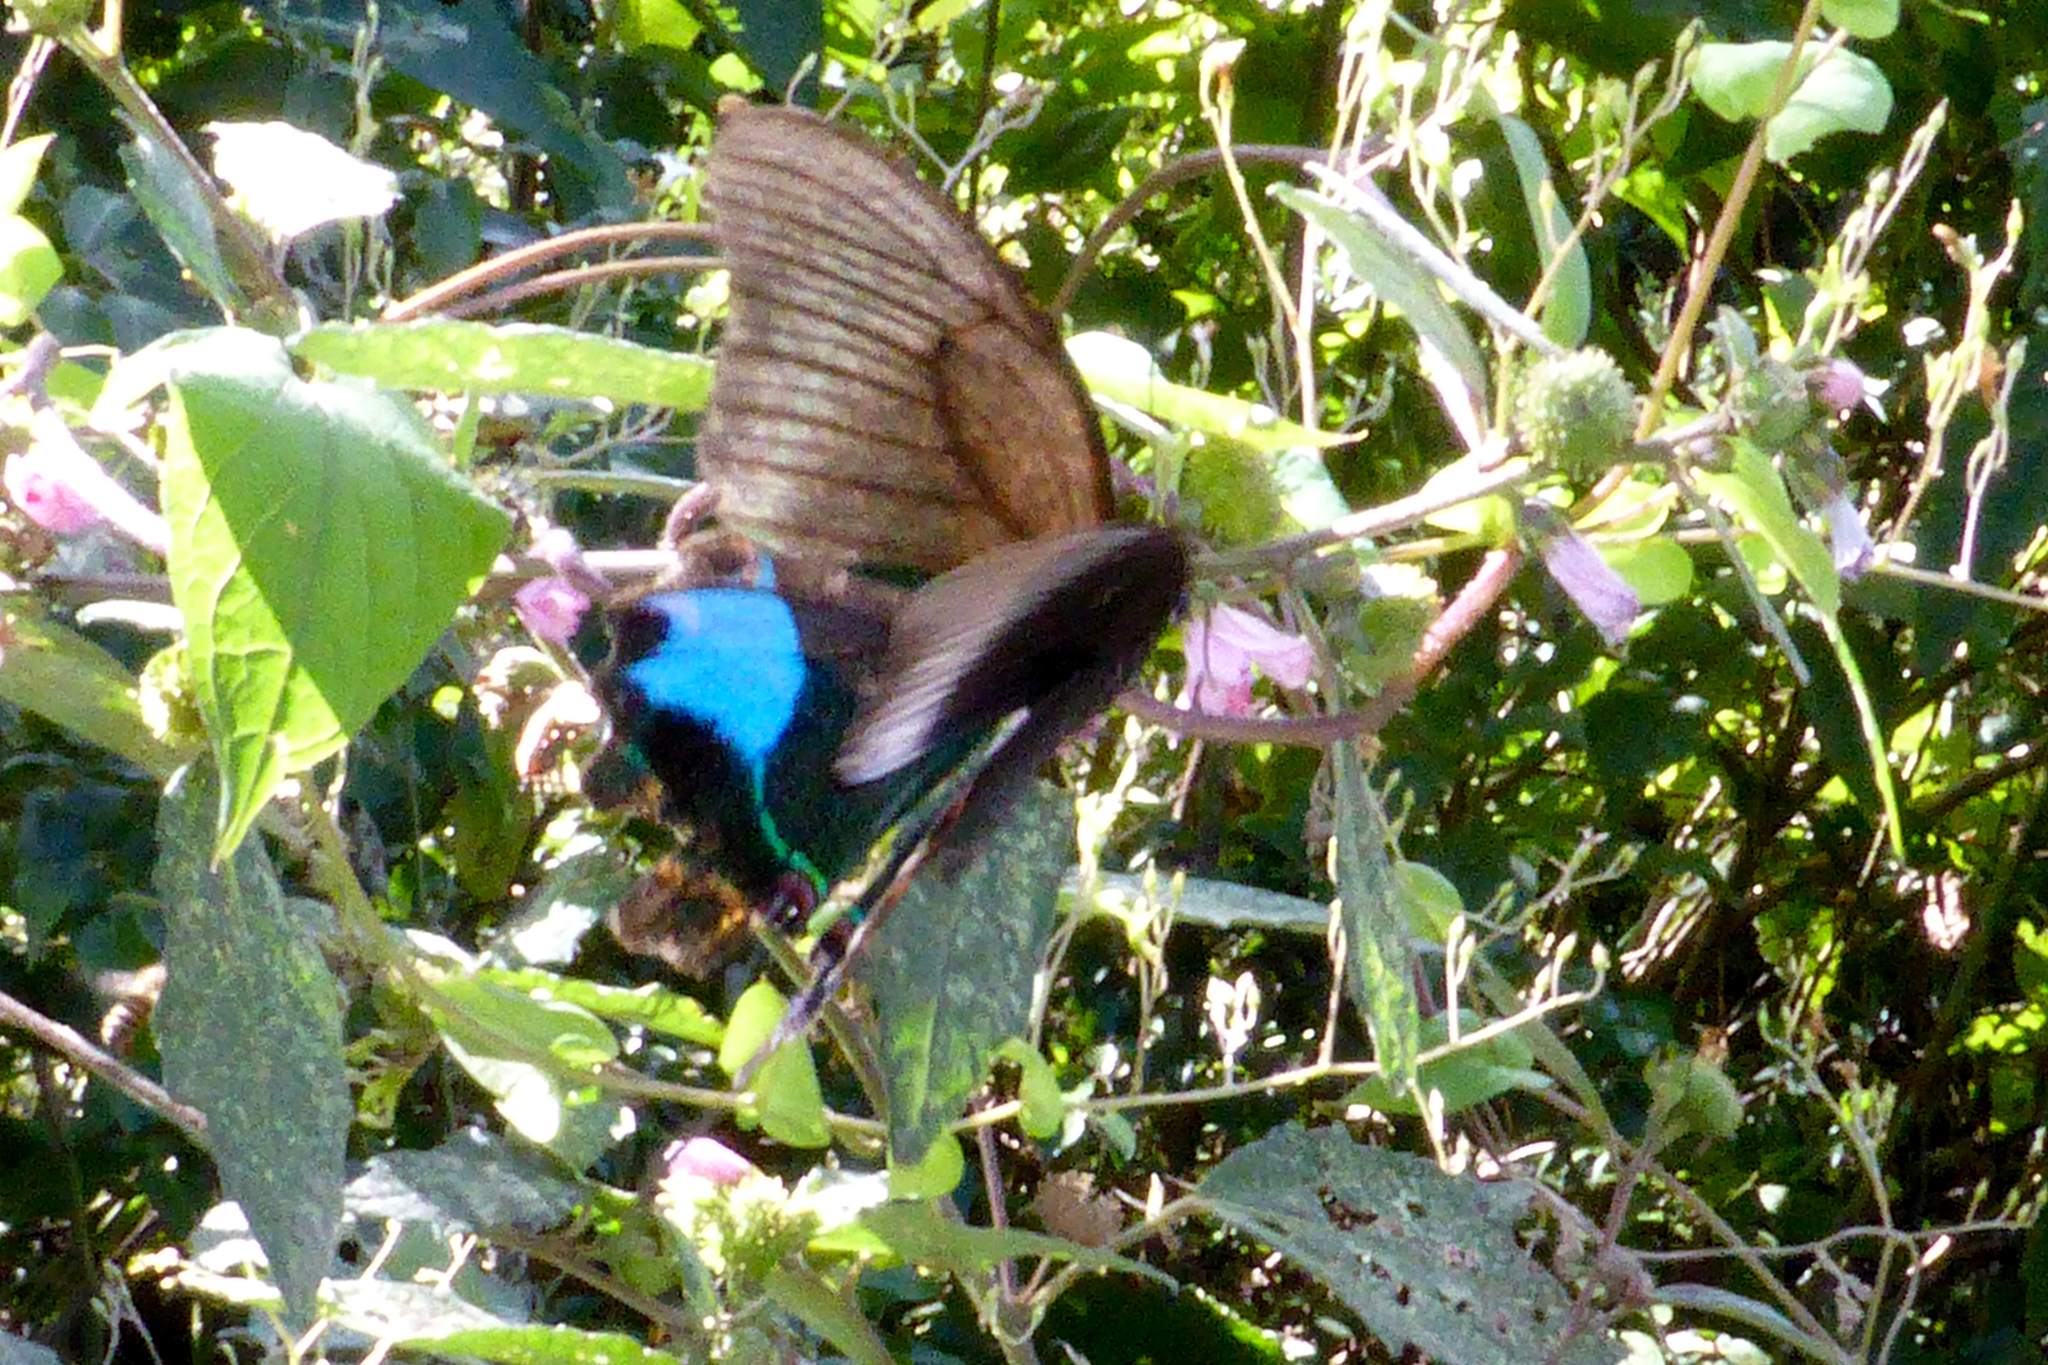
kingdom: Animalia
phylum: Arthropoda
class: Insecta
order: Lepidoptera
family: Papilionidae
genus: Papilio
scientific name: Papilio paris
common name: Paris peacock
